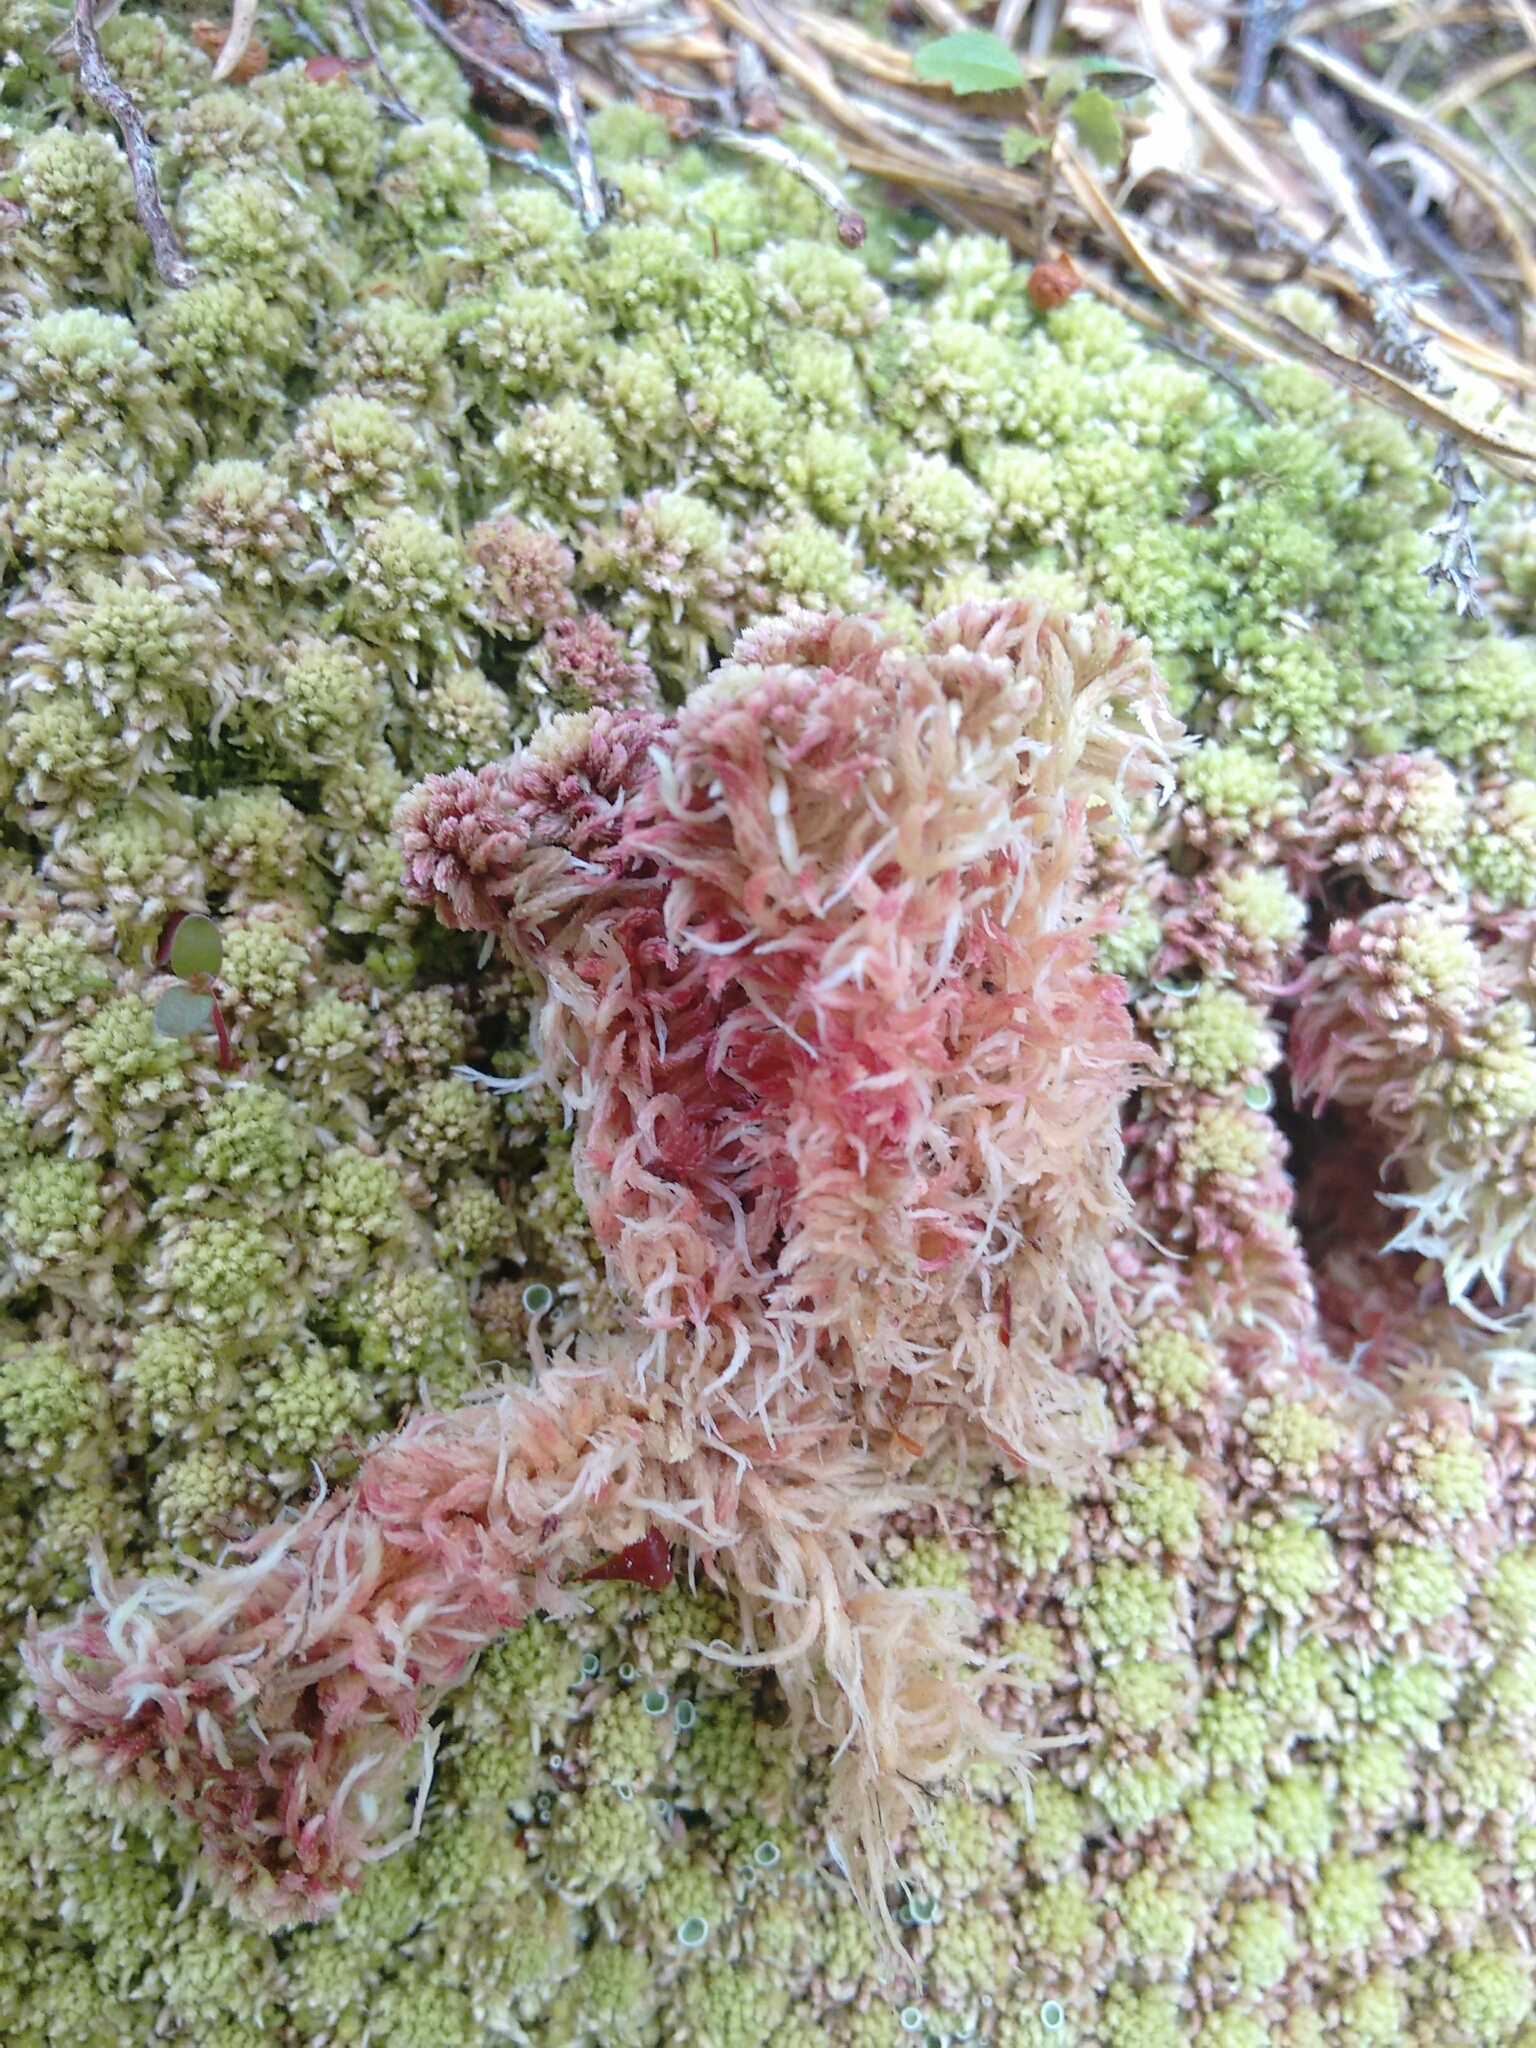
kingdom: Plantae
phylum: Bryophyta
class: Sphagnopsida
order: Sphagnales
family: Sphagnaceae
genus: Sphagnum
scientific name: Sphagnum capillifolium
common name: Small red peat moss
